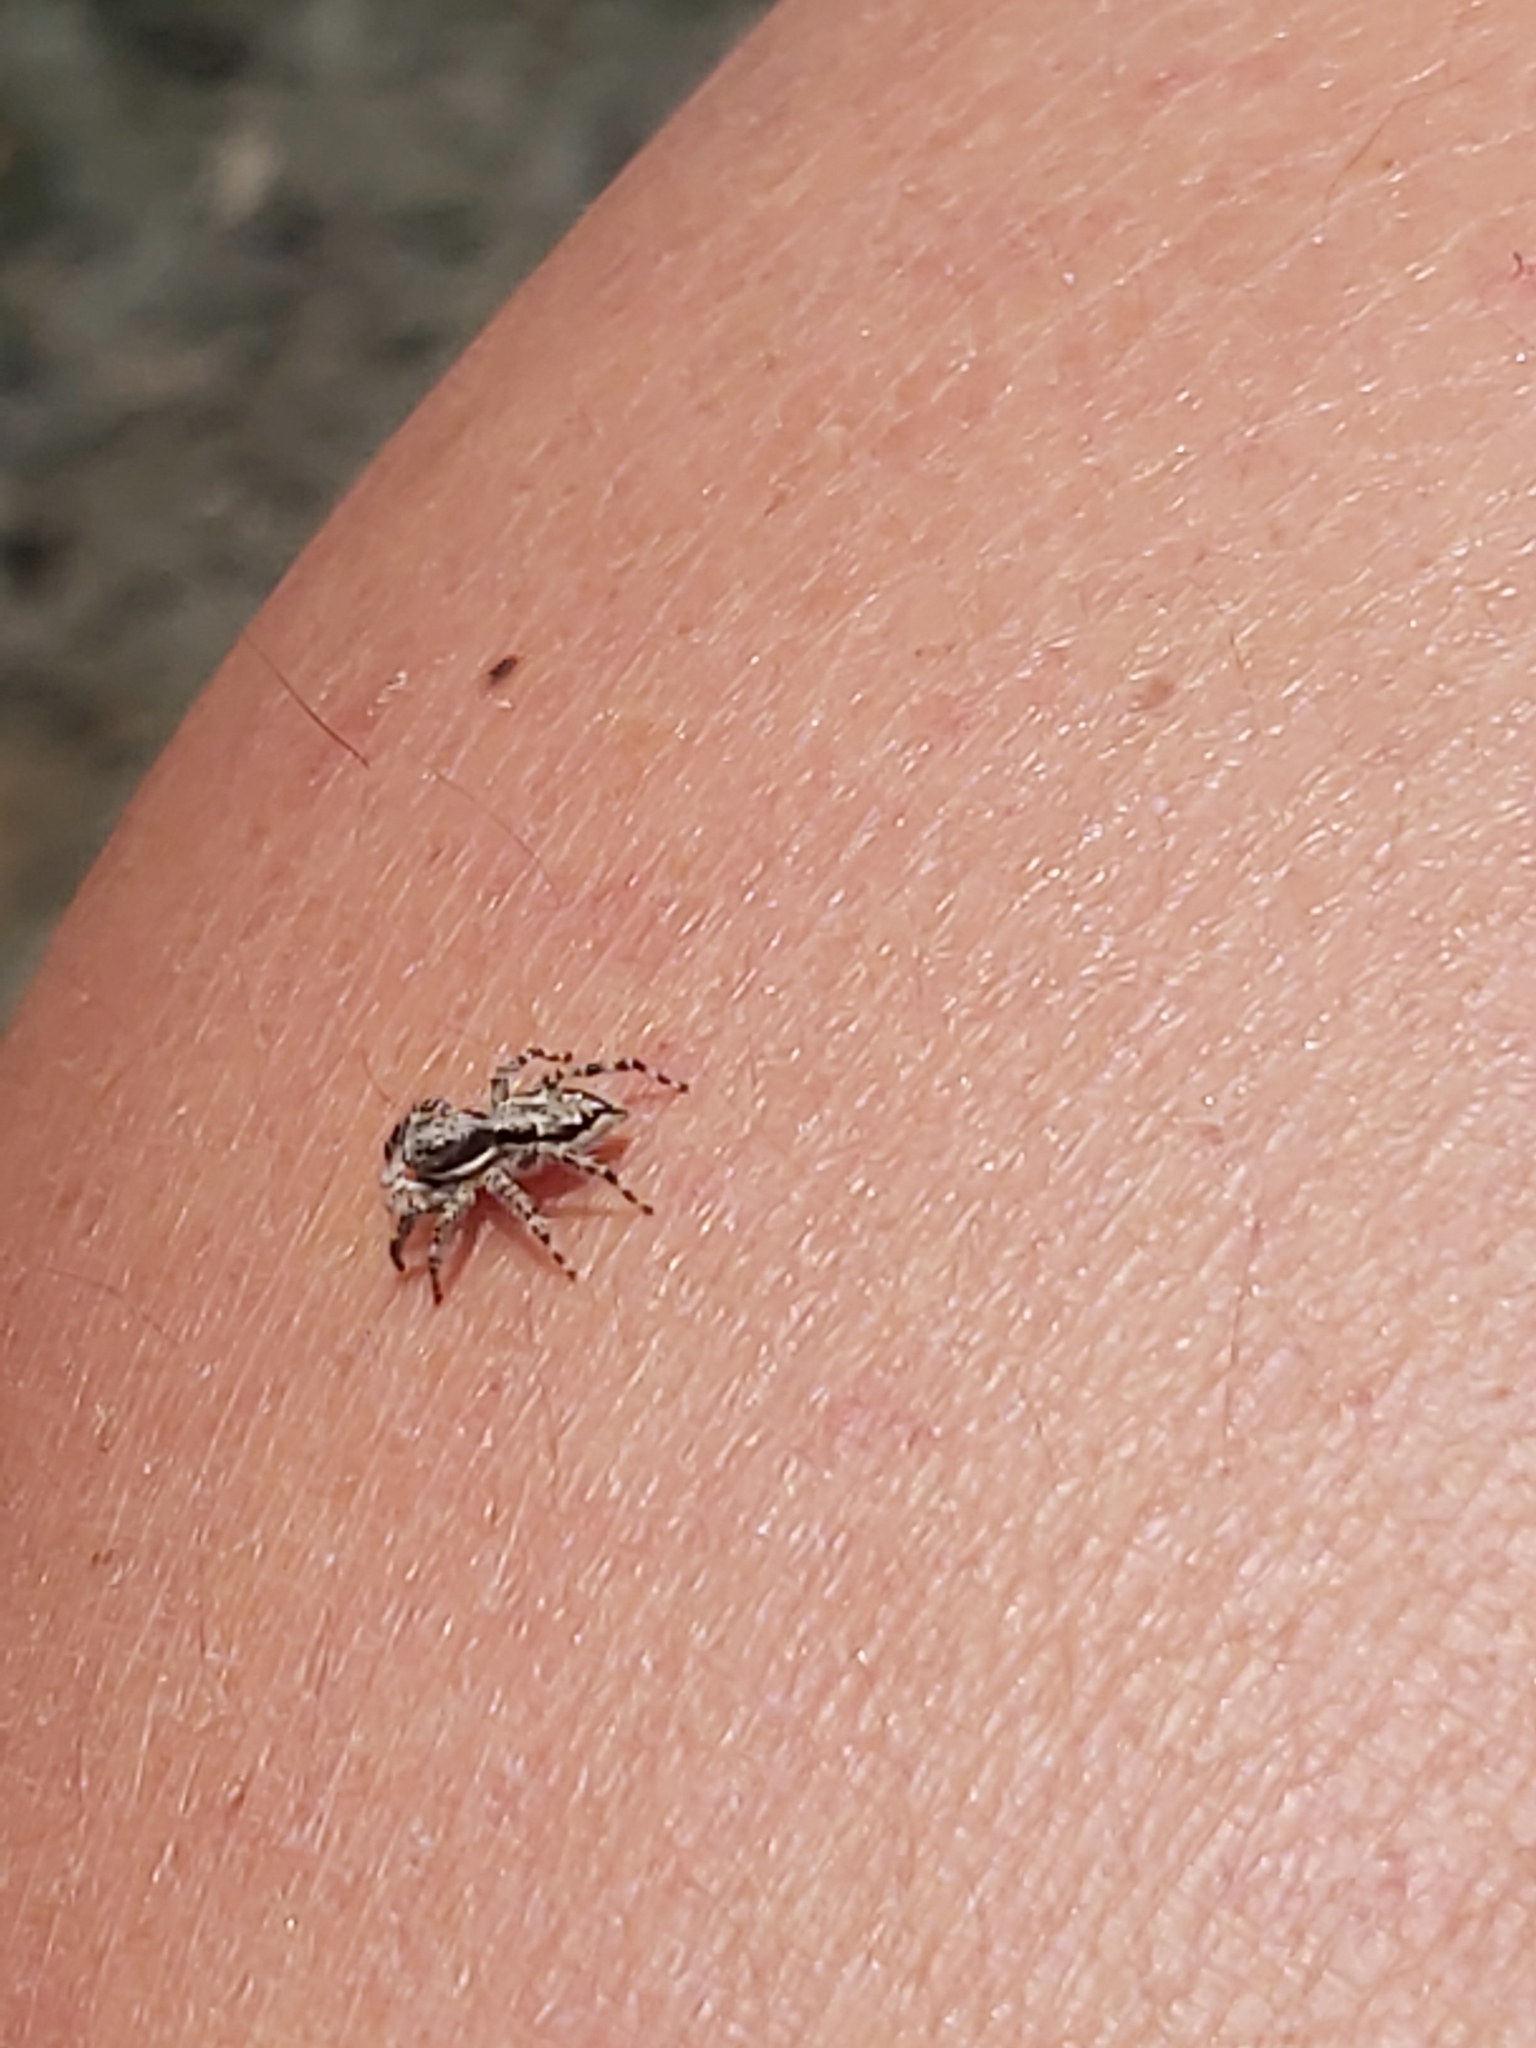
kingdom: Animalia
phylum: Arthropoda
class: Arachnida
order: Araneae
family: Salticidae
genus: Menemerus
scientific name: Menemerus bivittatus
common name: Gray wall jumper
